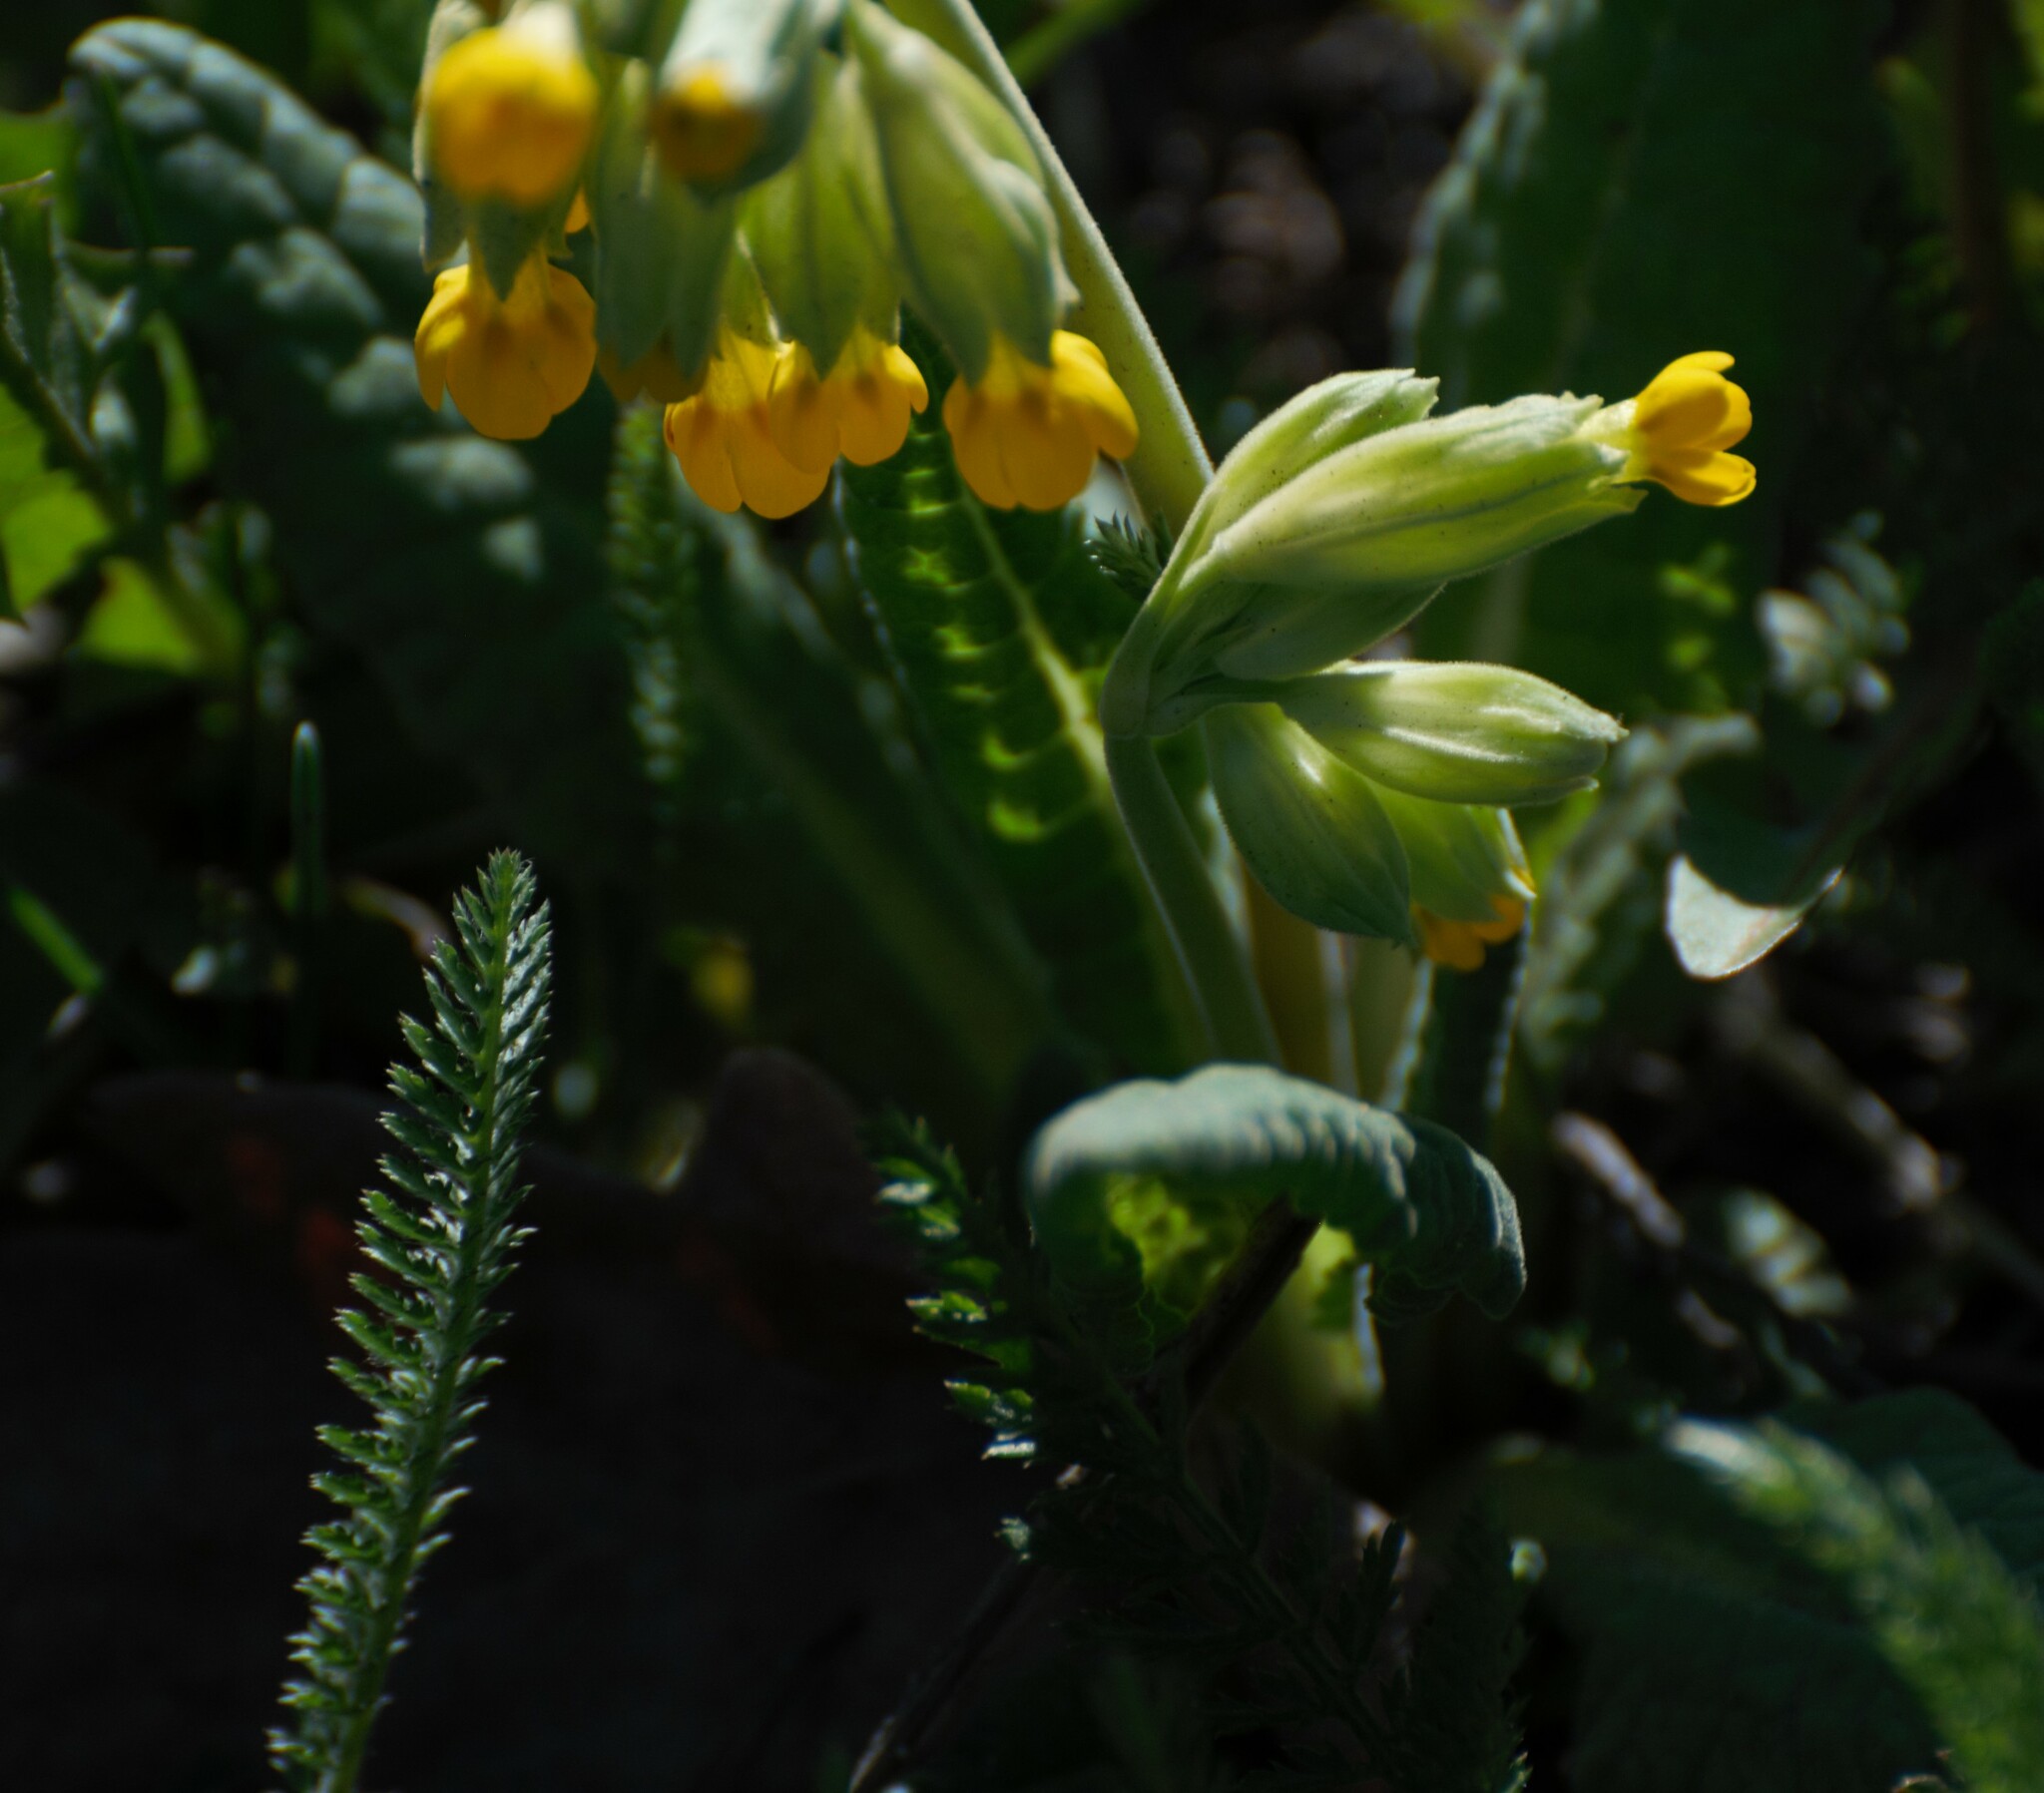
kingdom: Plantae
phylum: Tracheophyta
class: Magnoliopsida
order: Ericales
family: Primulaceae
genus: Primula
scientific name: Primula veris
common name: Cowslip
